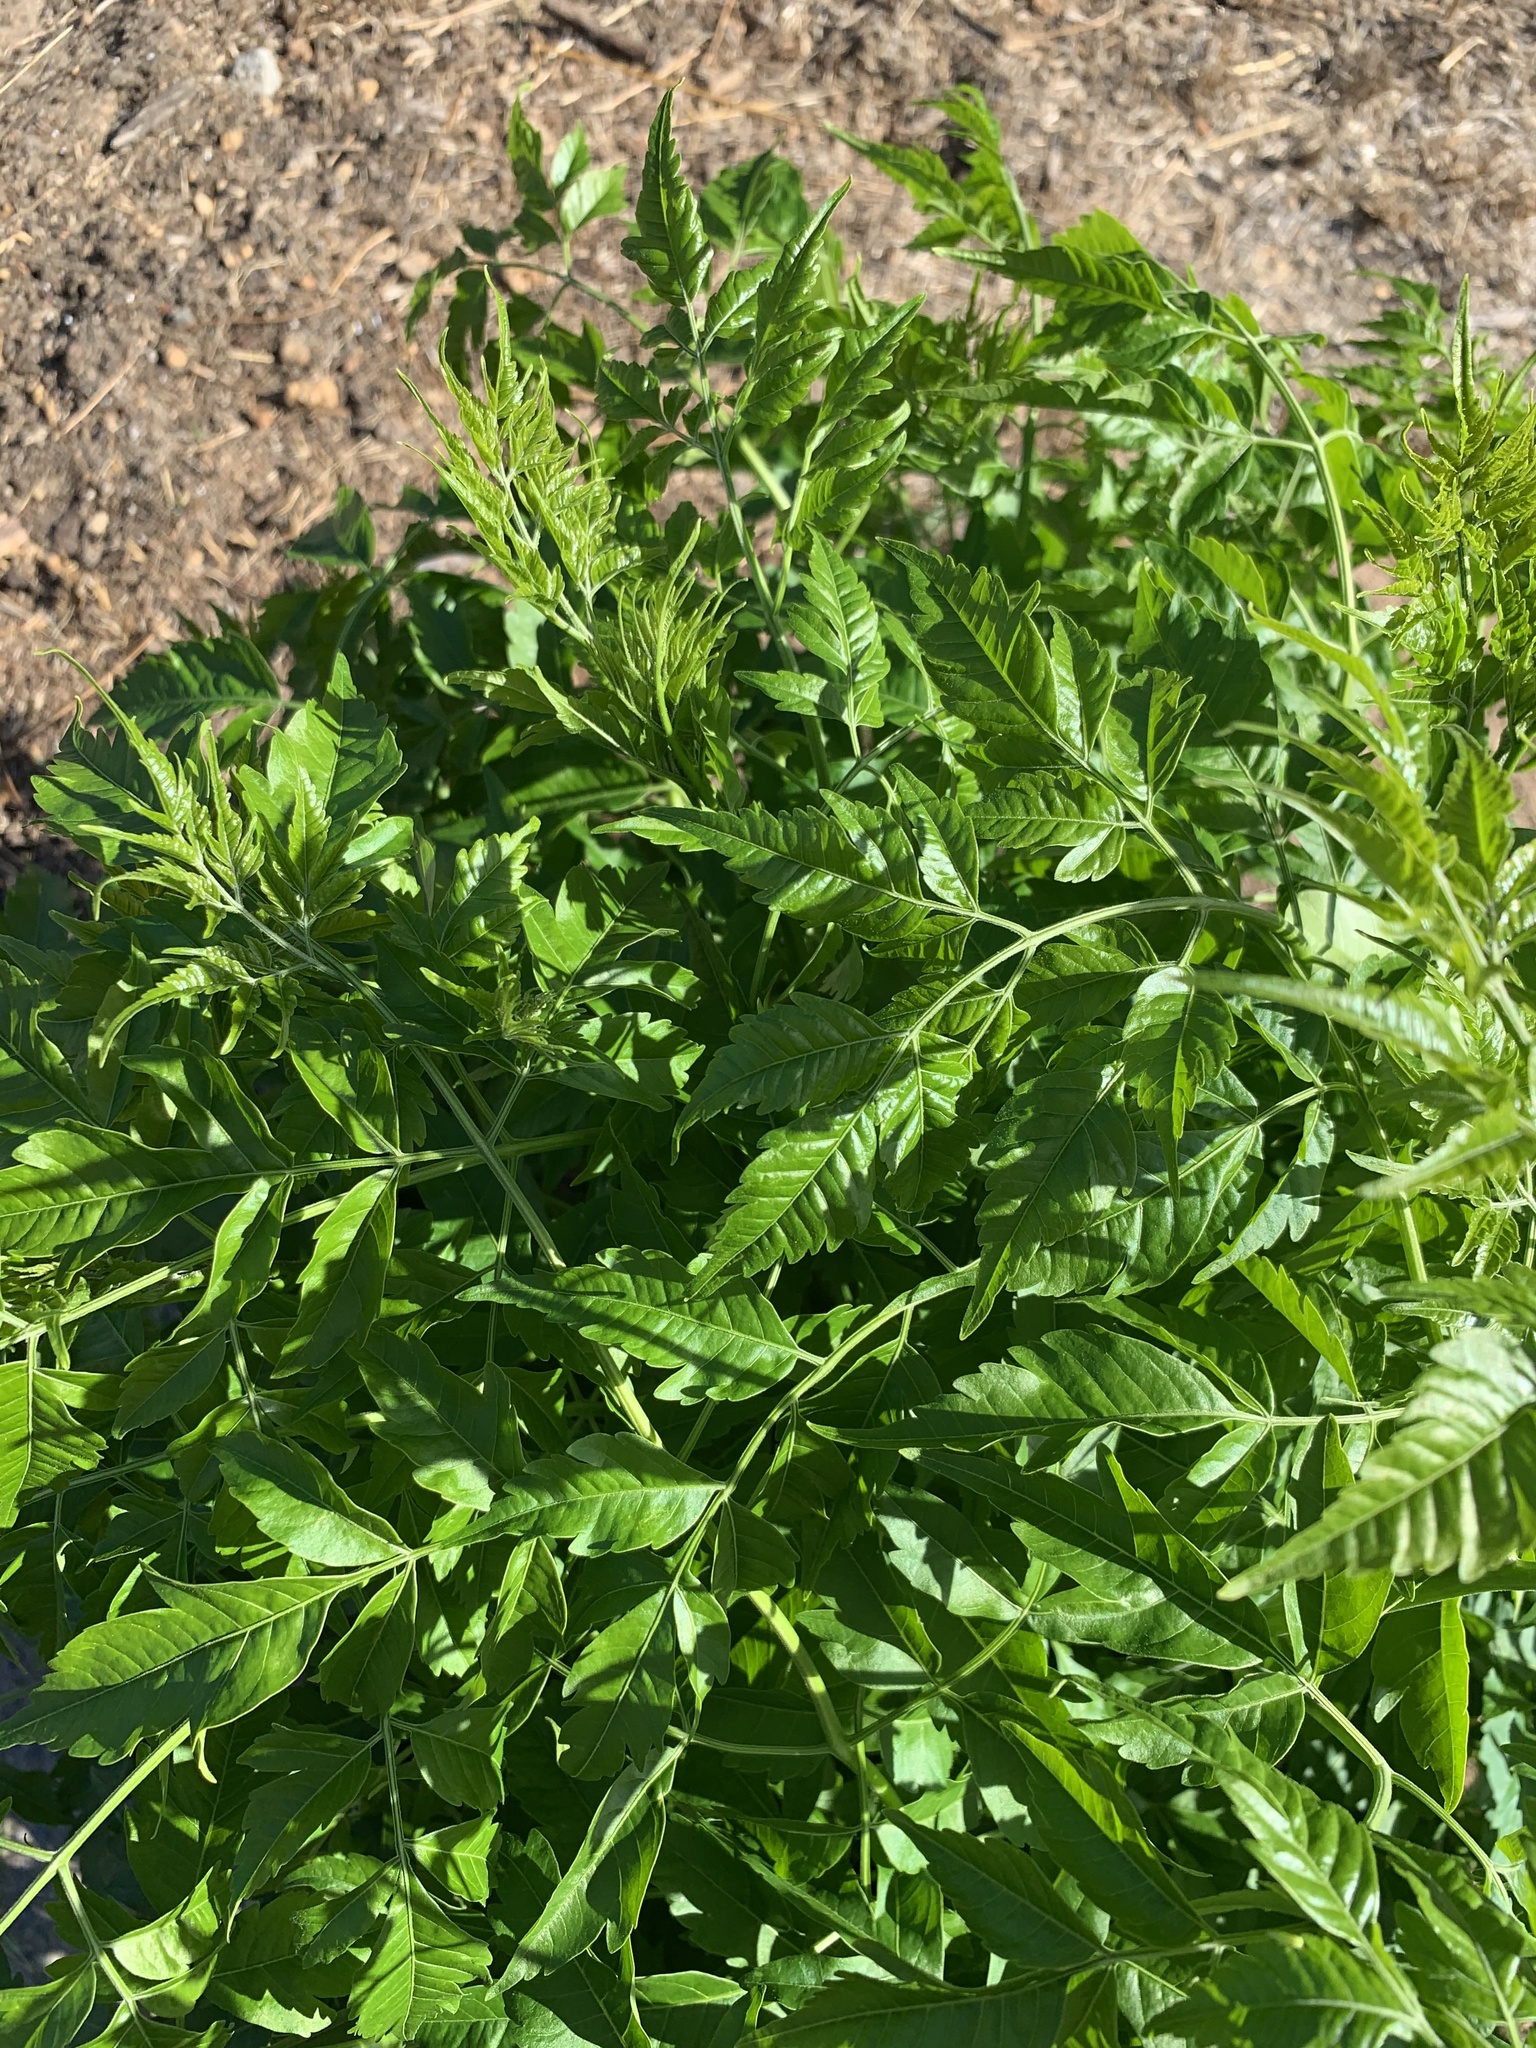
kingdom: Plantae
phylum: Tracheophyta
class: Magnoliopsida
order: Sapindales
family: Meliaceae
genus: Melia
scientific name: Melia azedarach
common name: Chinaberrytree
